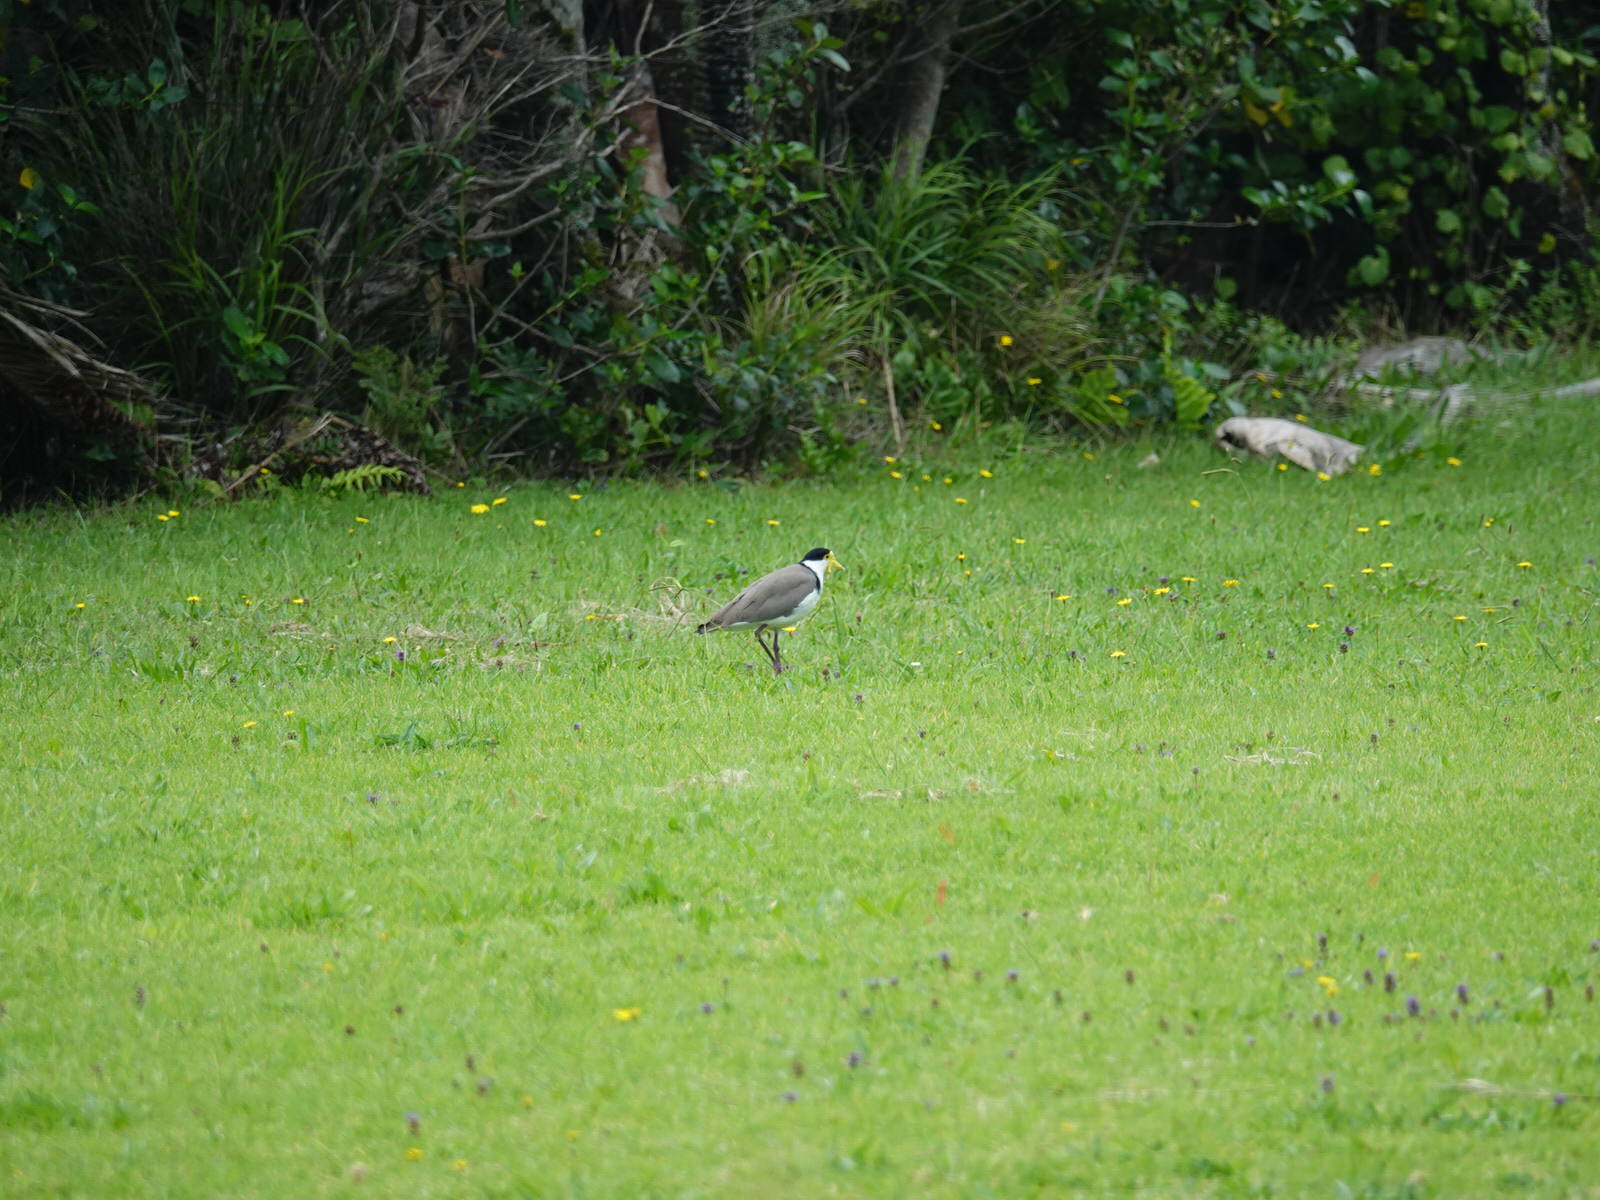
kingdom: Animalia
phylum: Chordata
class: Aves
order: Charadriiformes
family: Charadriidae
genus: Vanellus
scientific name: Vanellus miles
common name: Masked lapwing
